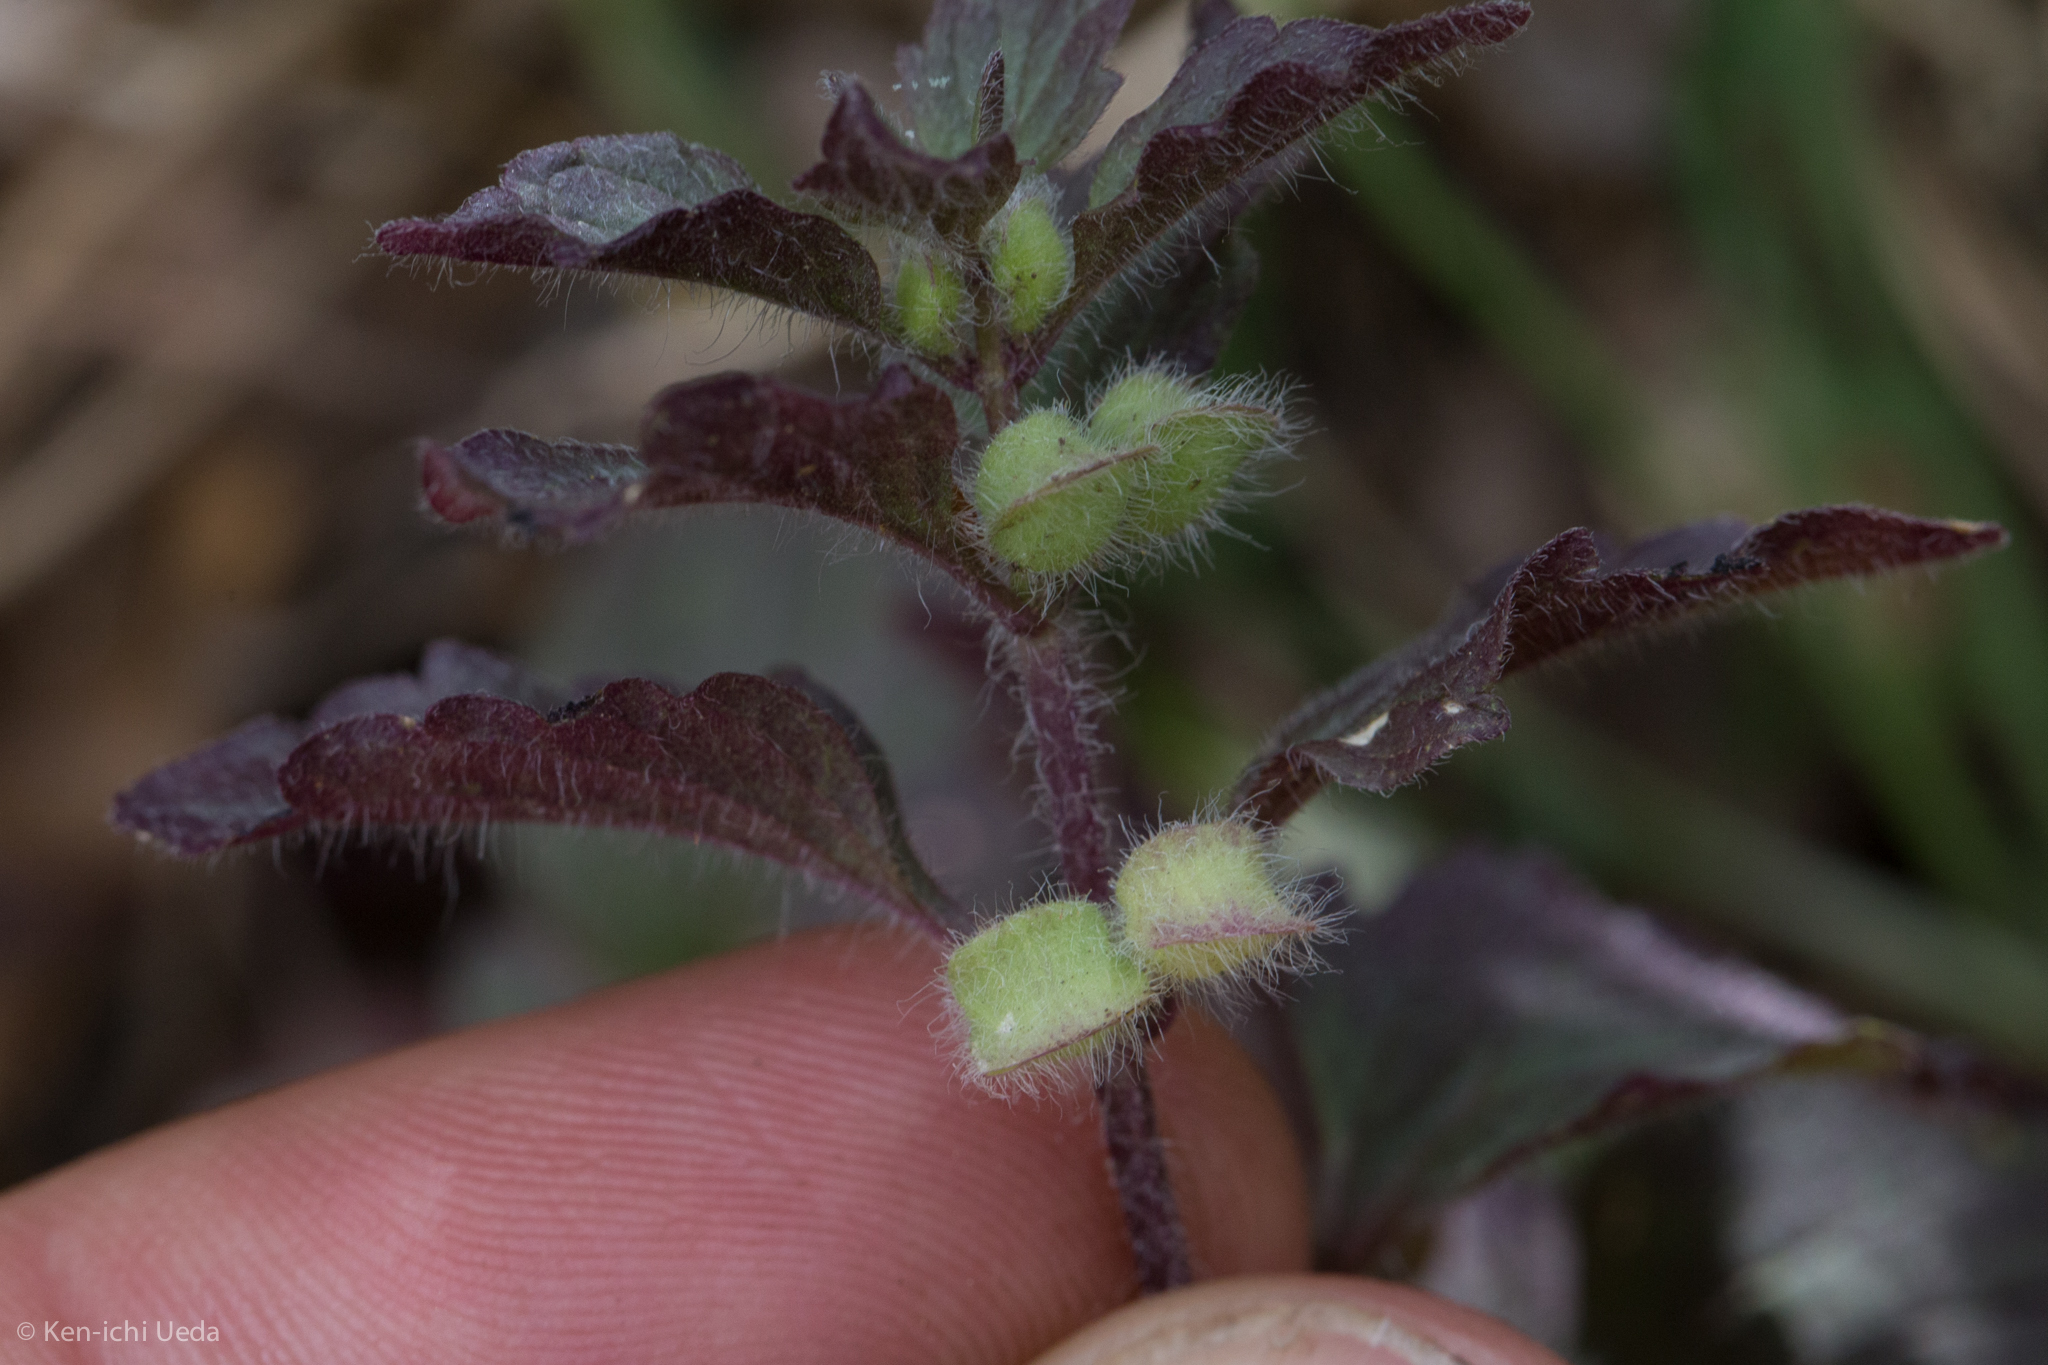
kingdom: Plantae
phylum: Tracheophyta
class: Magnoliopsida
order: Lamiales
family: Lamiaceae
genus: Scutellaria
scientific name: Scutellaria tuberosa
